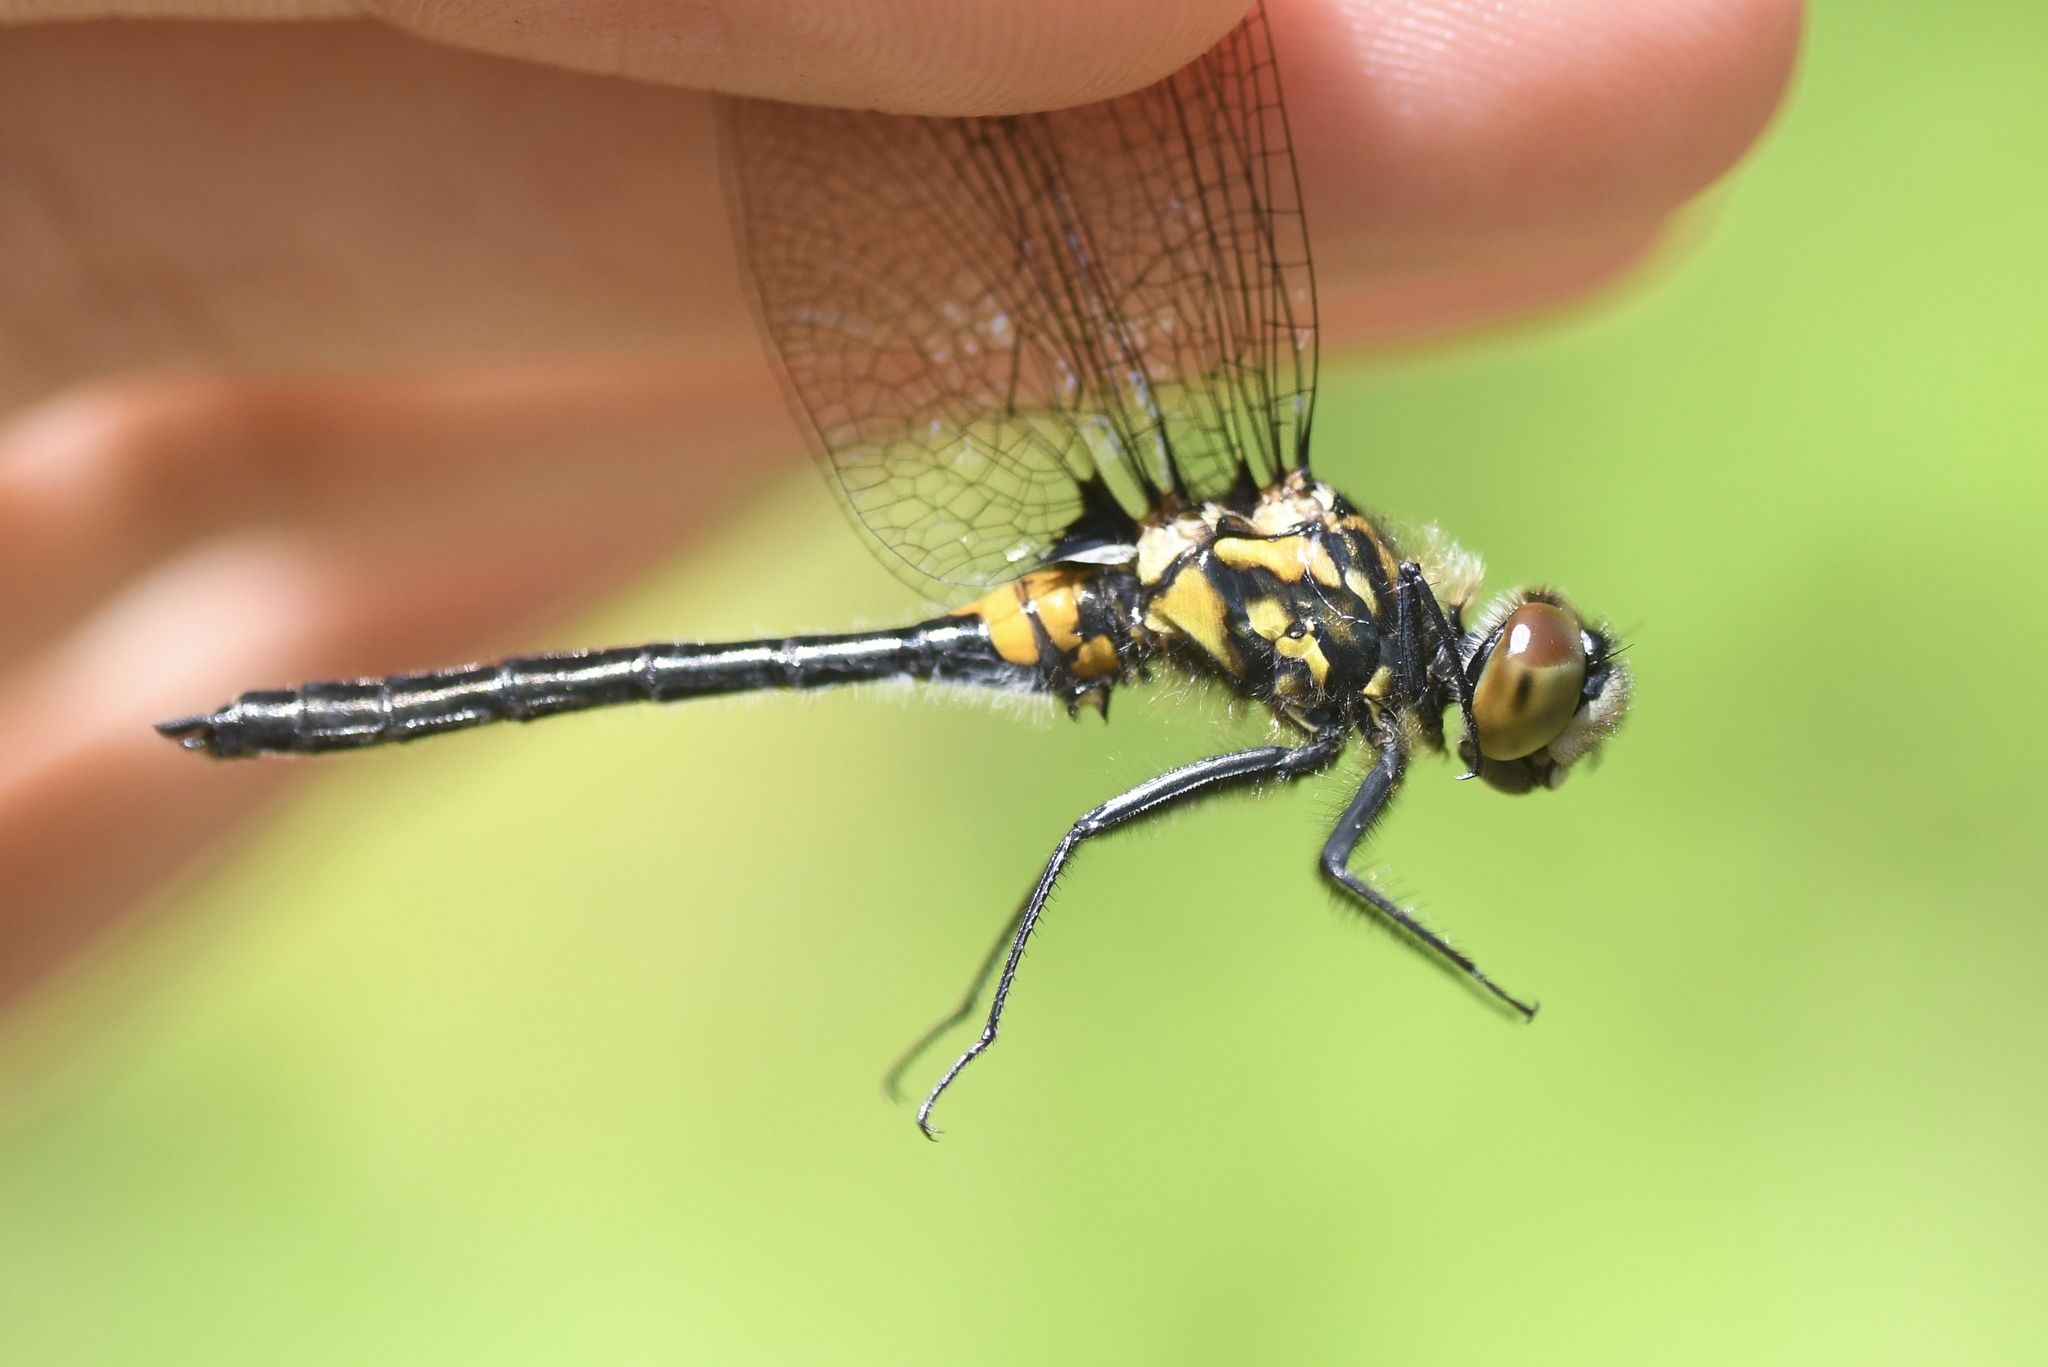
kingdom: Animalia
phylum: Arthropoda
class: Insecta
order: Odonata
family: Libellulidae
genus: Leucorrhinia
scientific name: Leucorrhinia glacialis
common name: Crimson-ringed whiteface
